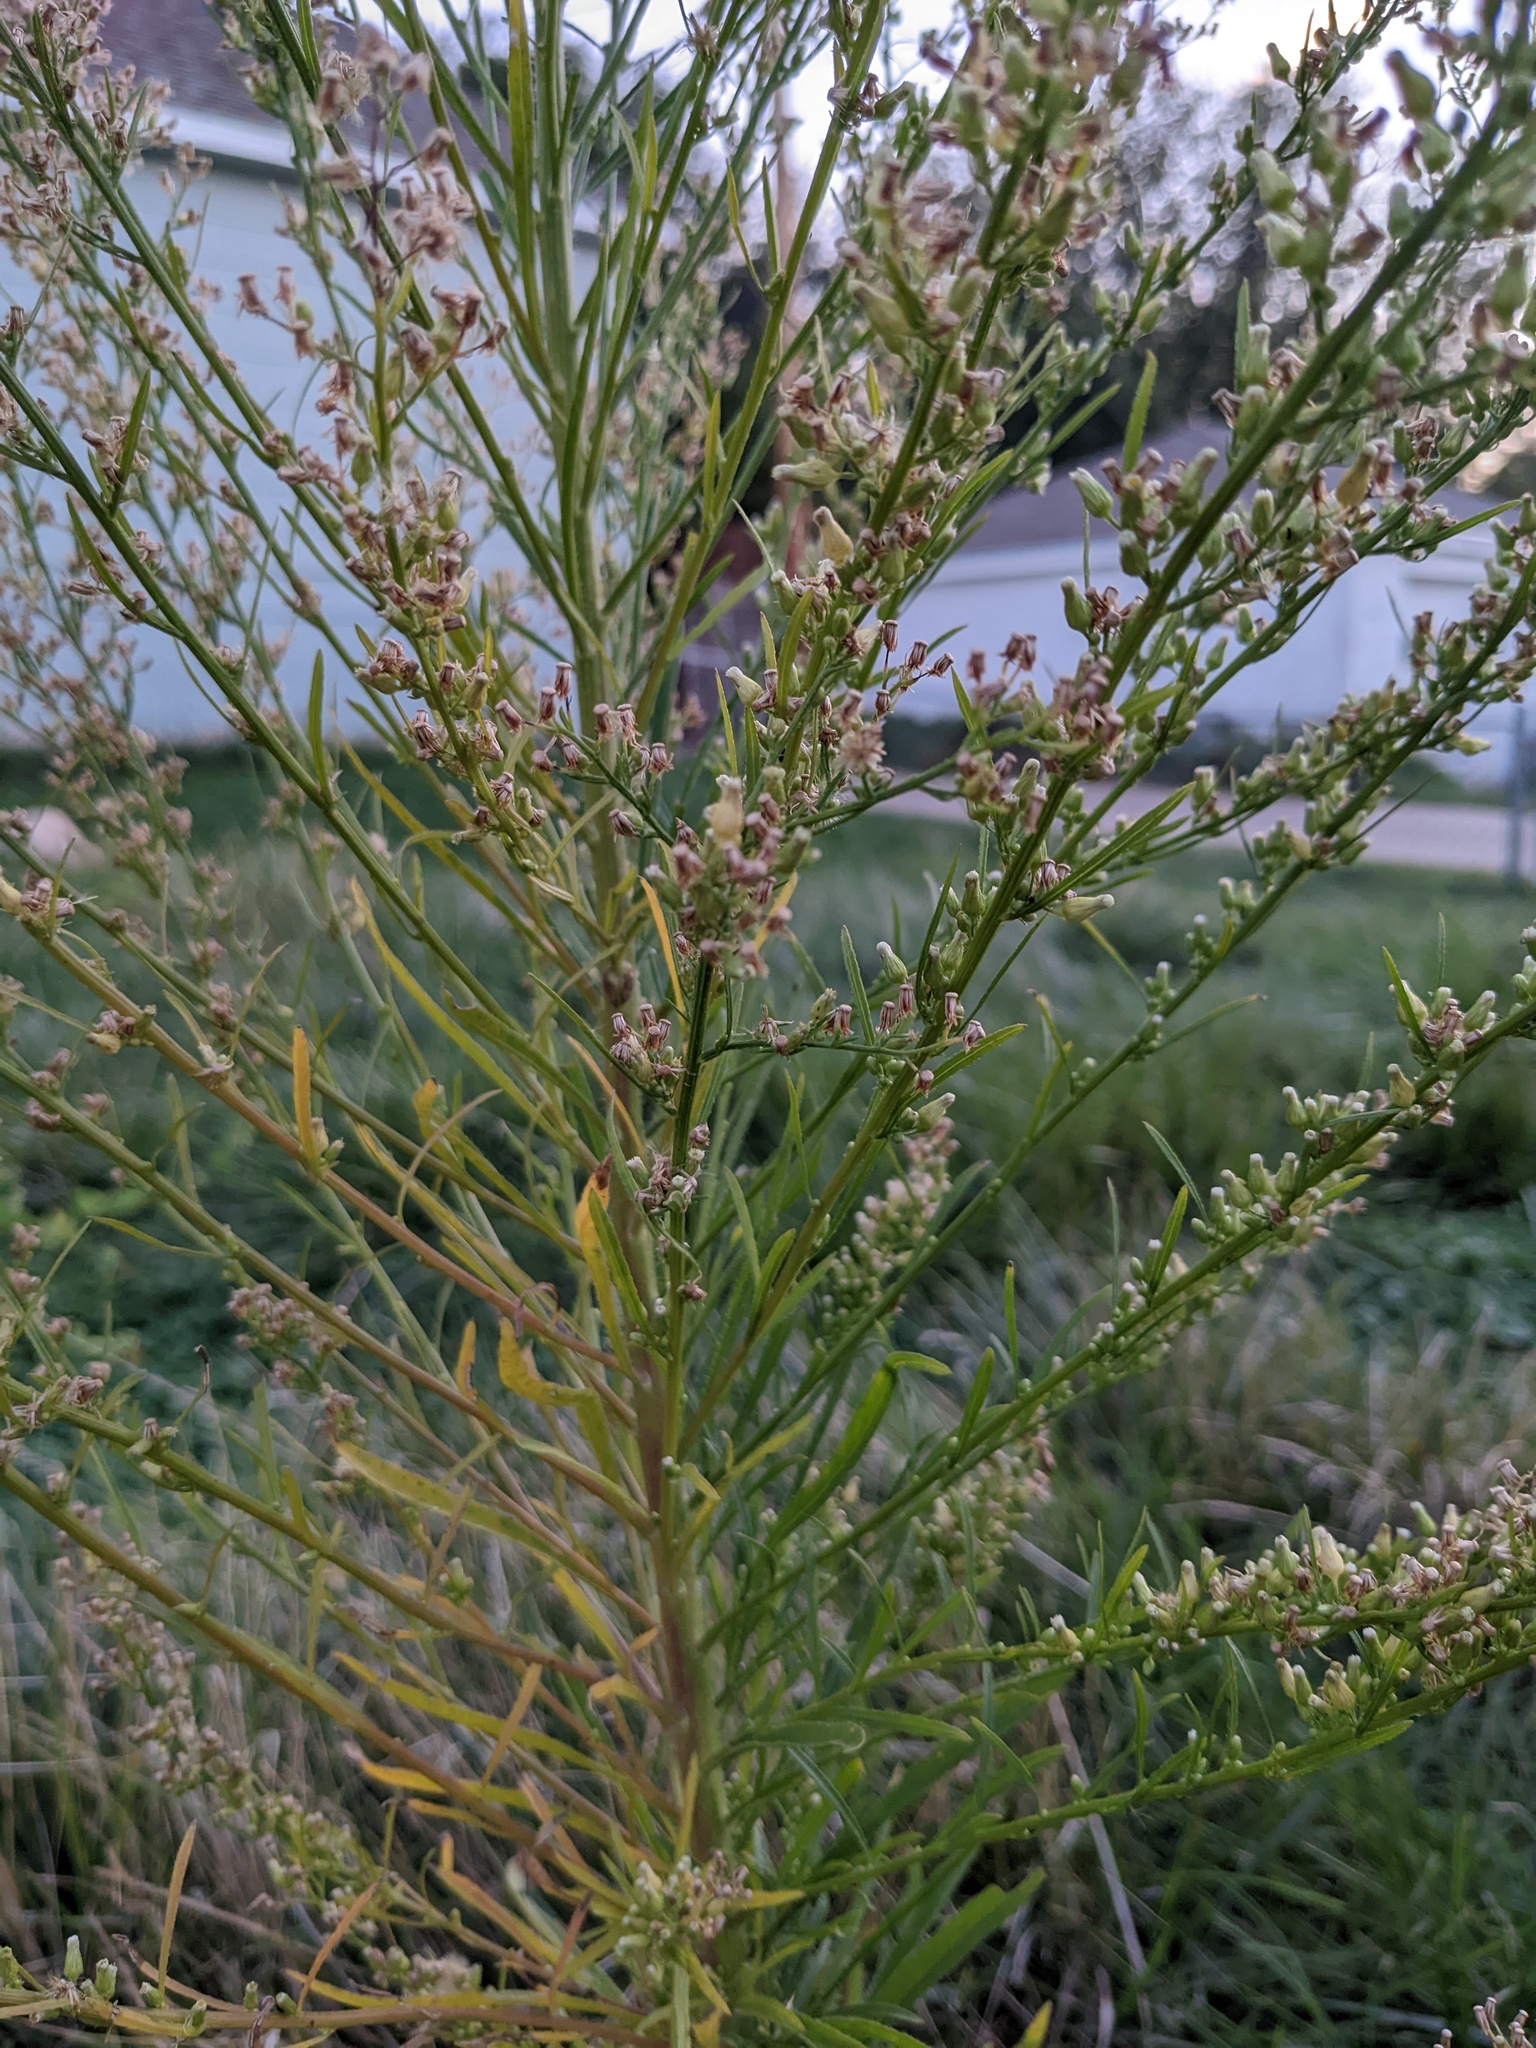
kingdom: Plantae
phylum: Tracheophyta
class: Magnoliopsida
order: Asterales
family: Asteraceae
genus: Erigeron
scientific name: Erigeron canadensis
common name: Canadian fleabane
